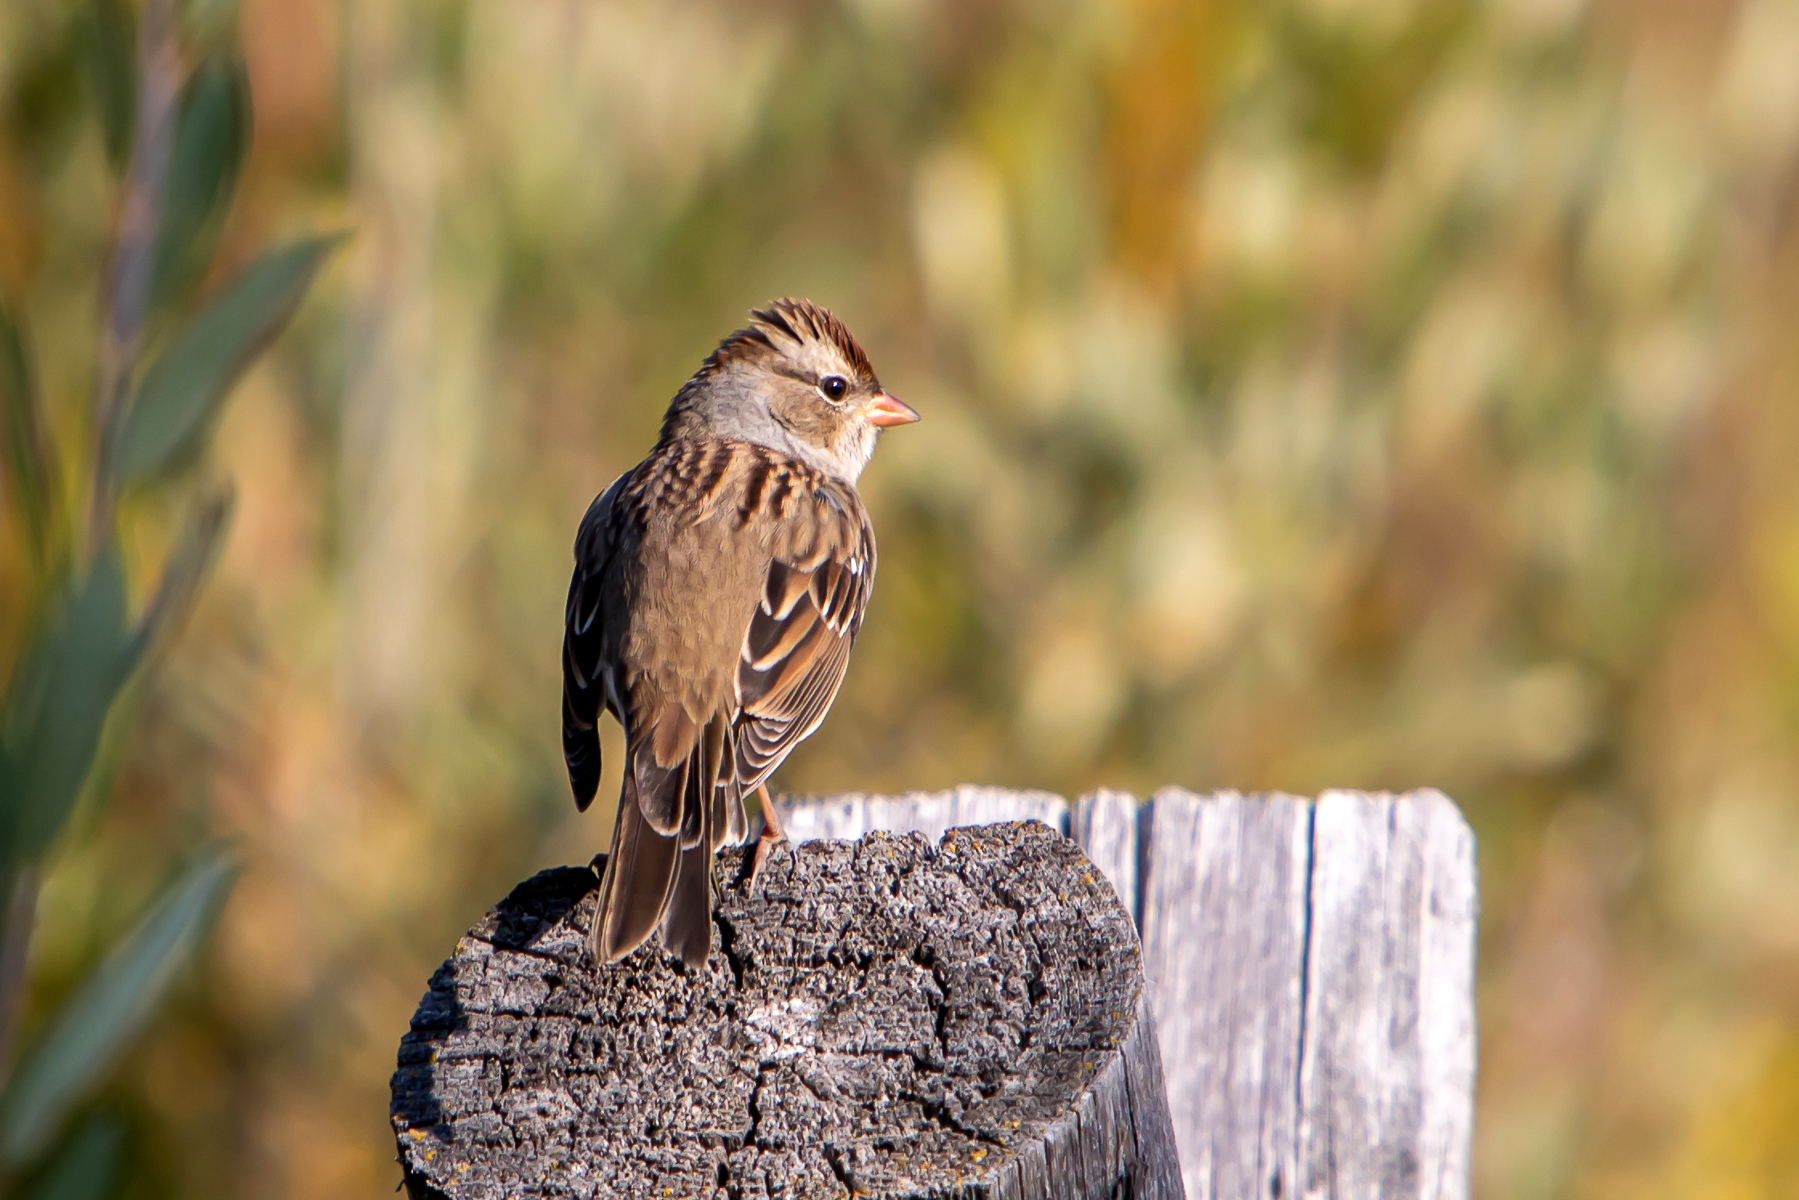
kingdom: Animalia
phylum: Chordata
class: Aves
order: Passeriformes
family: Passerellidae
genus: Zonotrichia
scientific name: Zonotrichia leucophrys
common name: White-crowned sparrow
